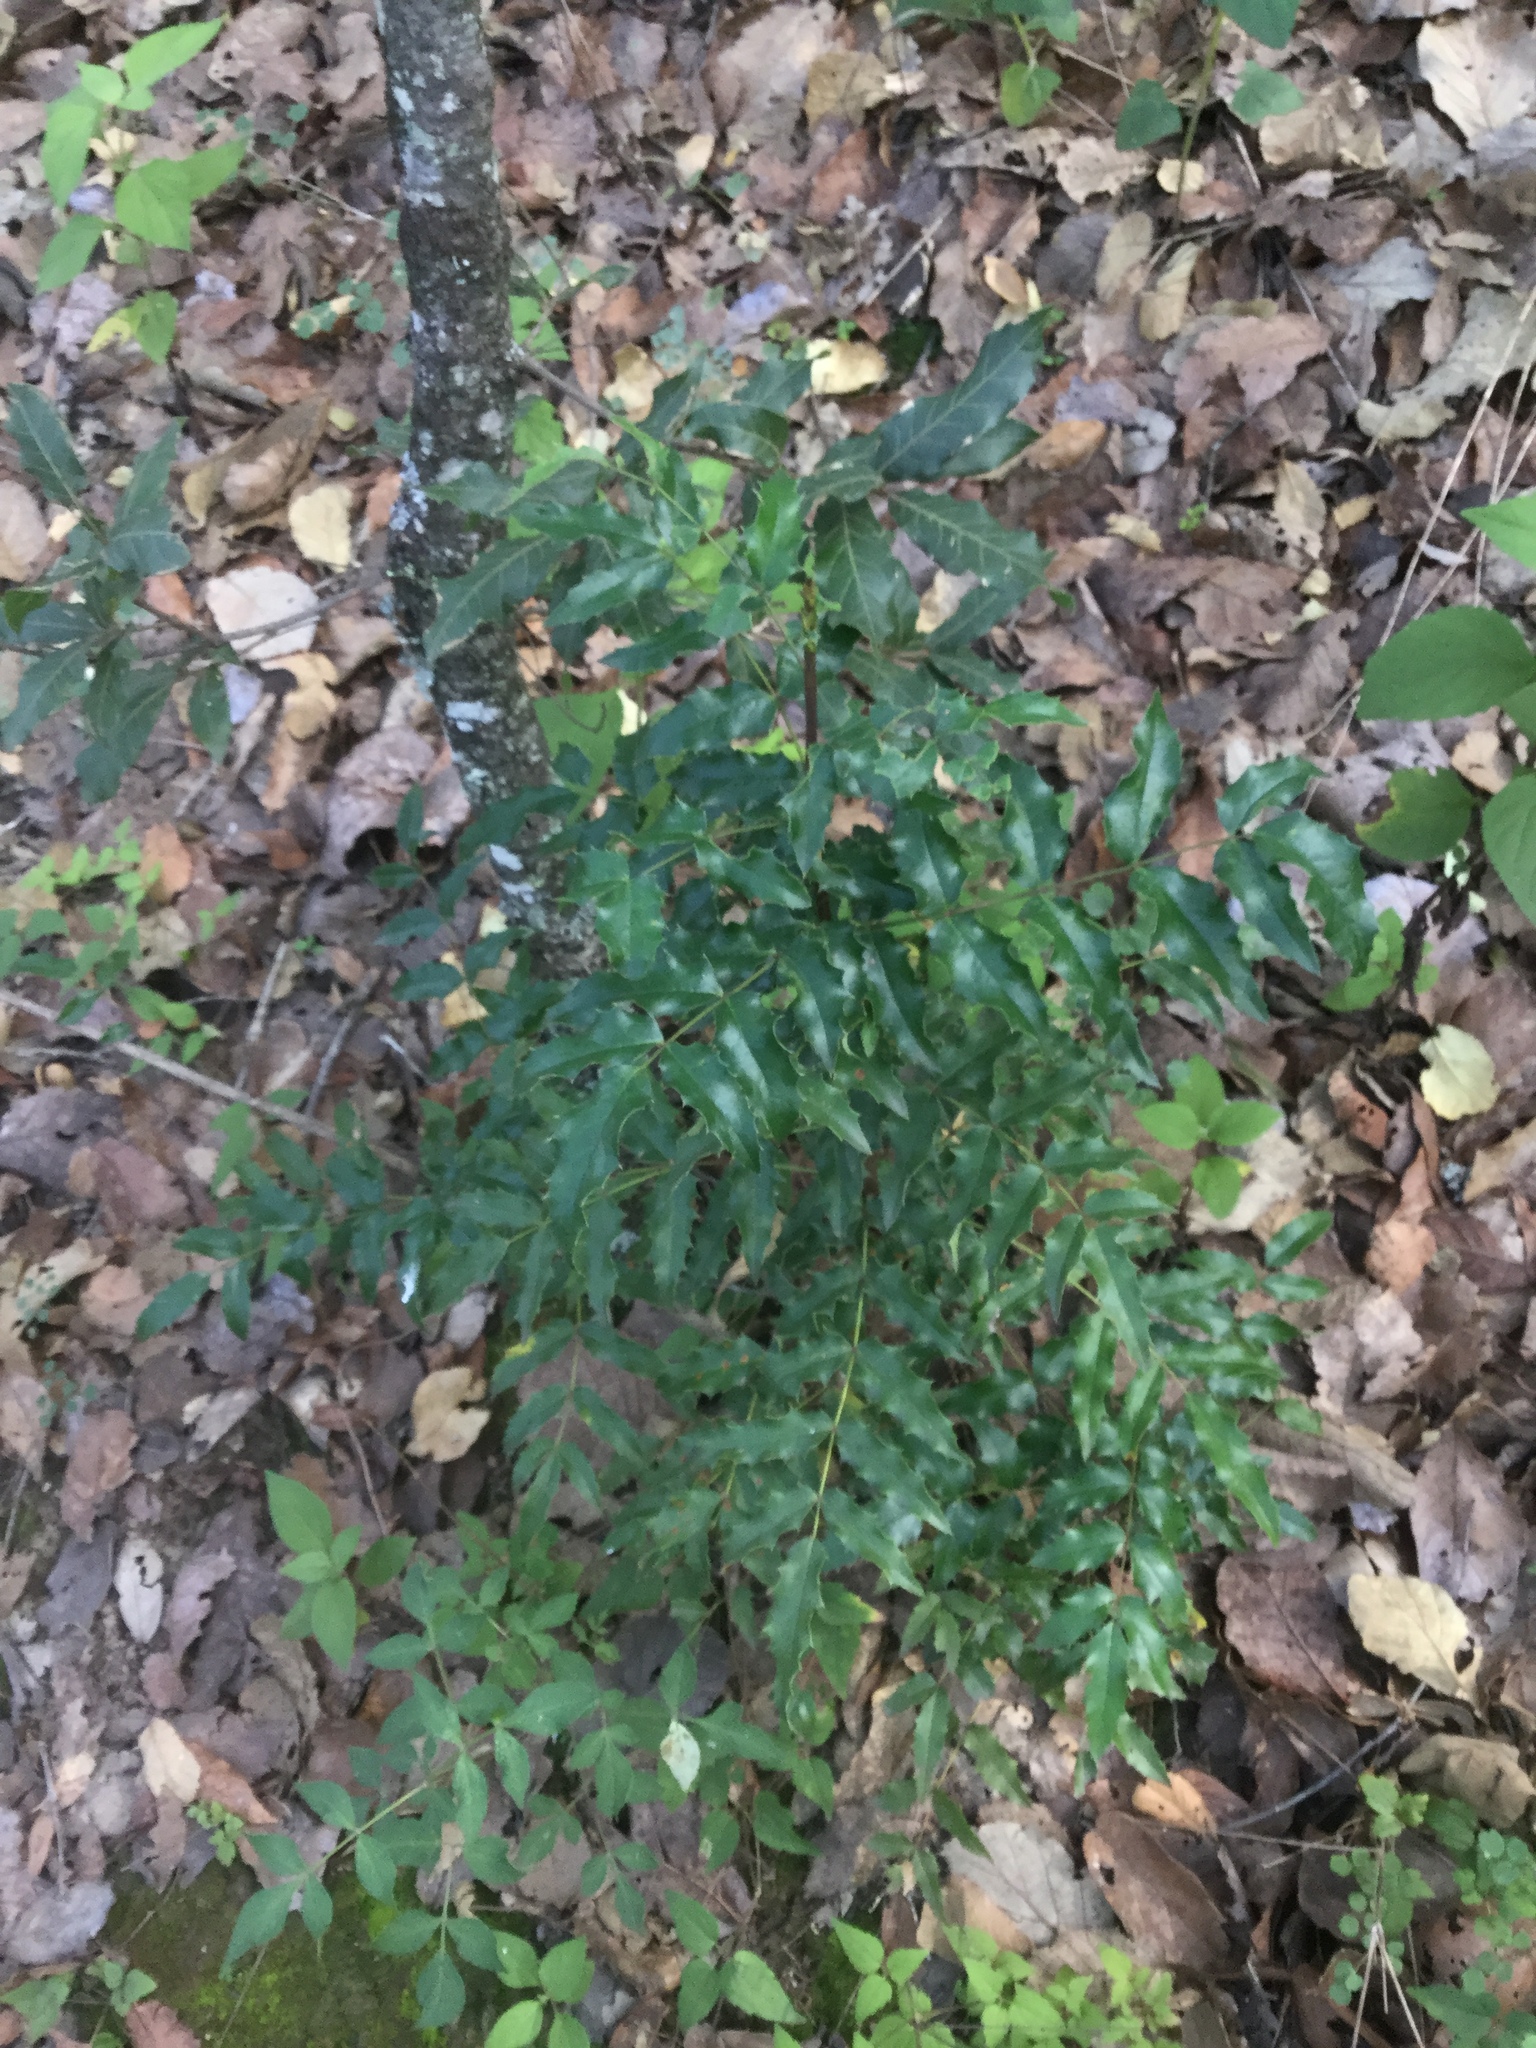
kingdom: Plantae
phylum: Tracheophyta
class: Magnoliopsida
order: Ranunculales
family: Berberidaceae
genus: Mahonia
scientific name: Mahonia moranensis
